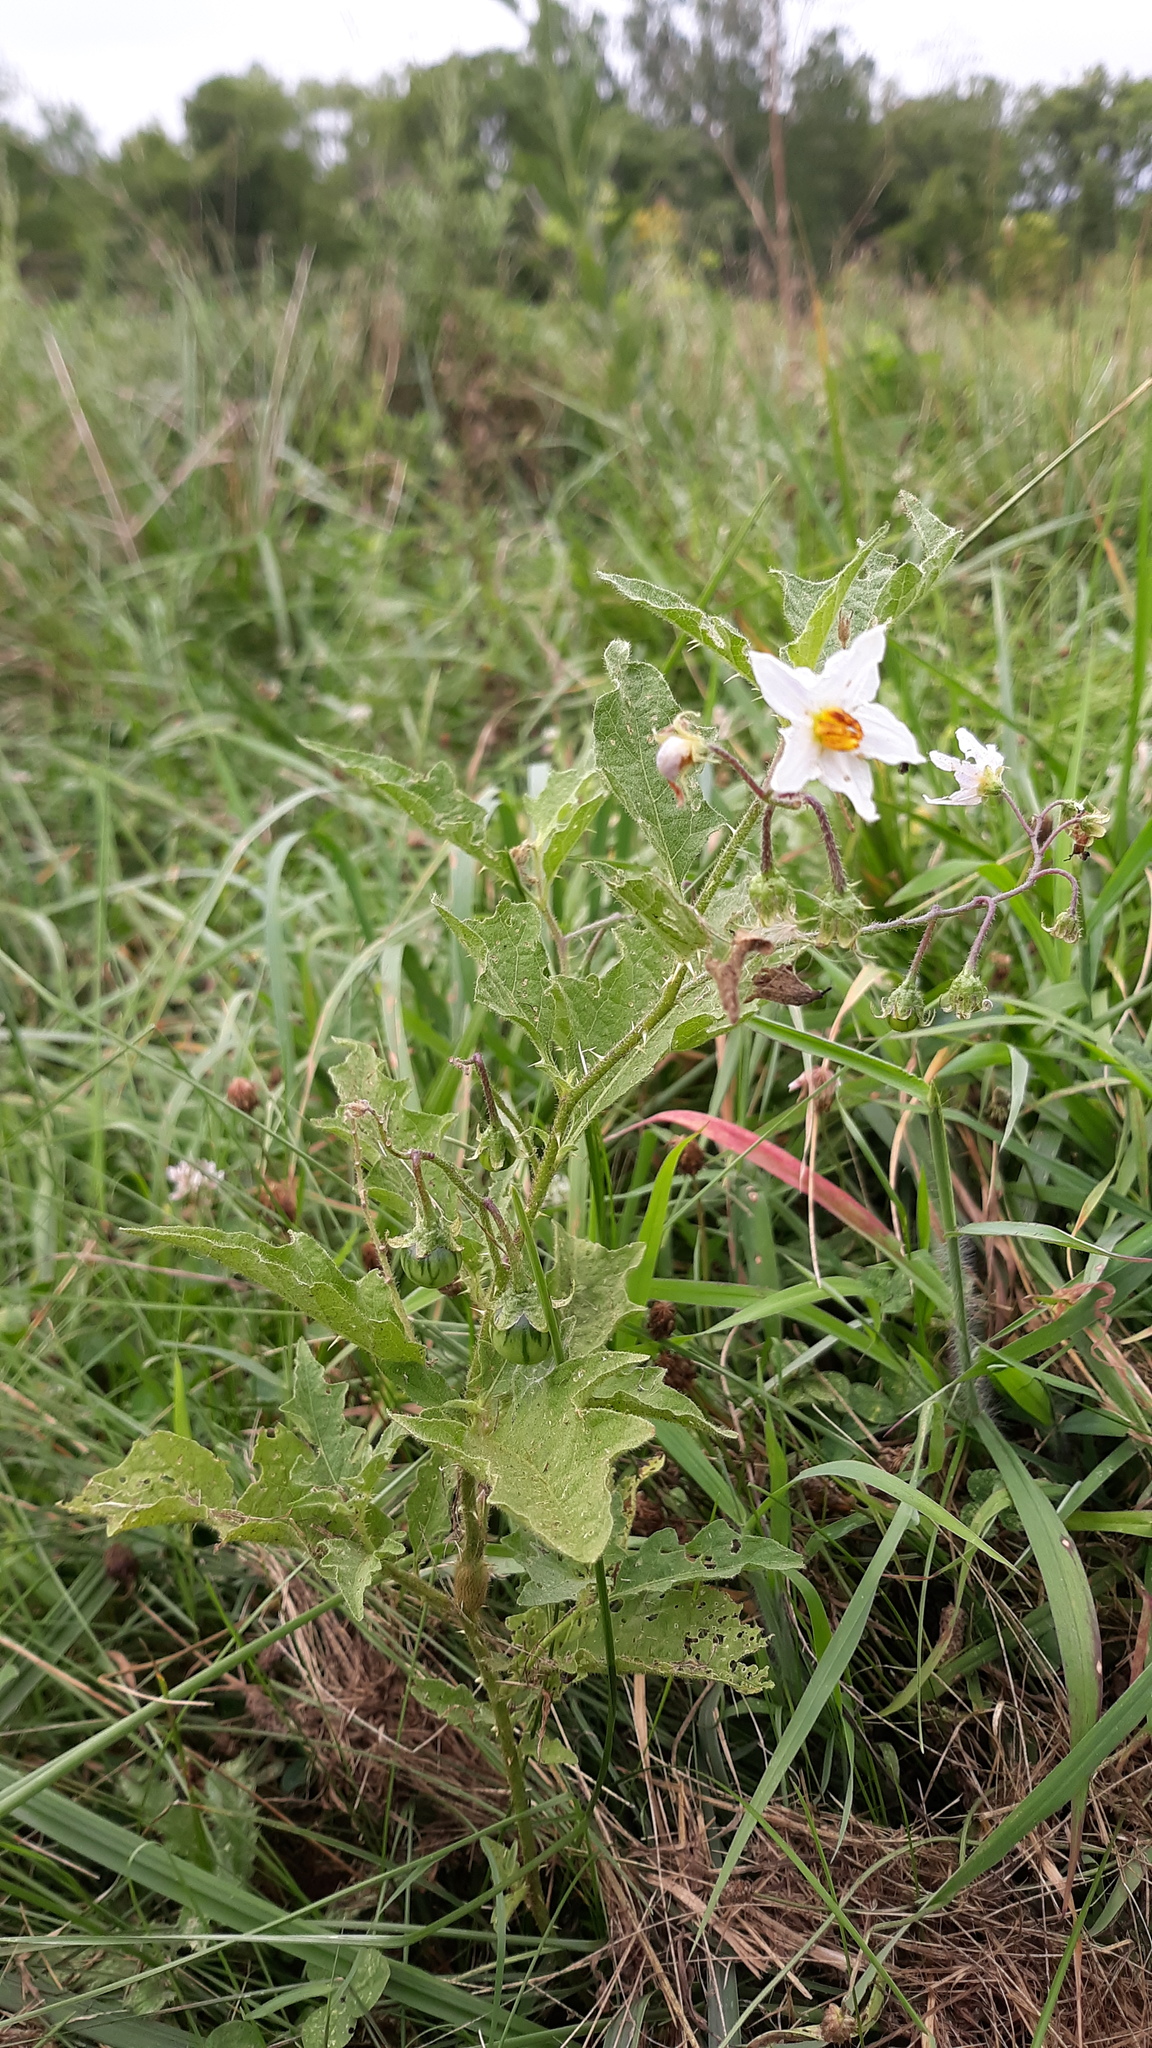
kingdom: Plantae
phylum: Tracheophyta
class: Magnoliopsida
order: Solanales
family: Solanaceae
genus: Solanum
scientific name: Solanum carolinense
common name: Horse-nettle
